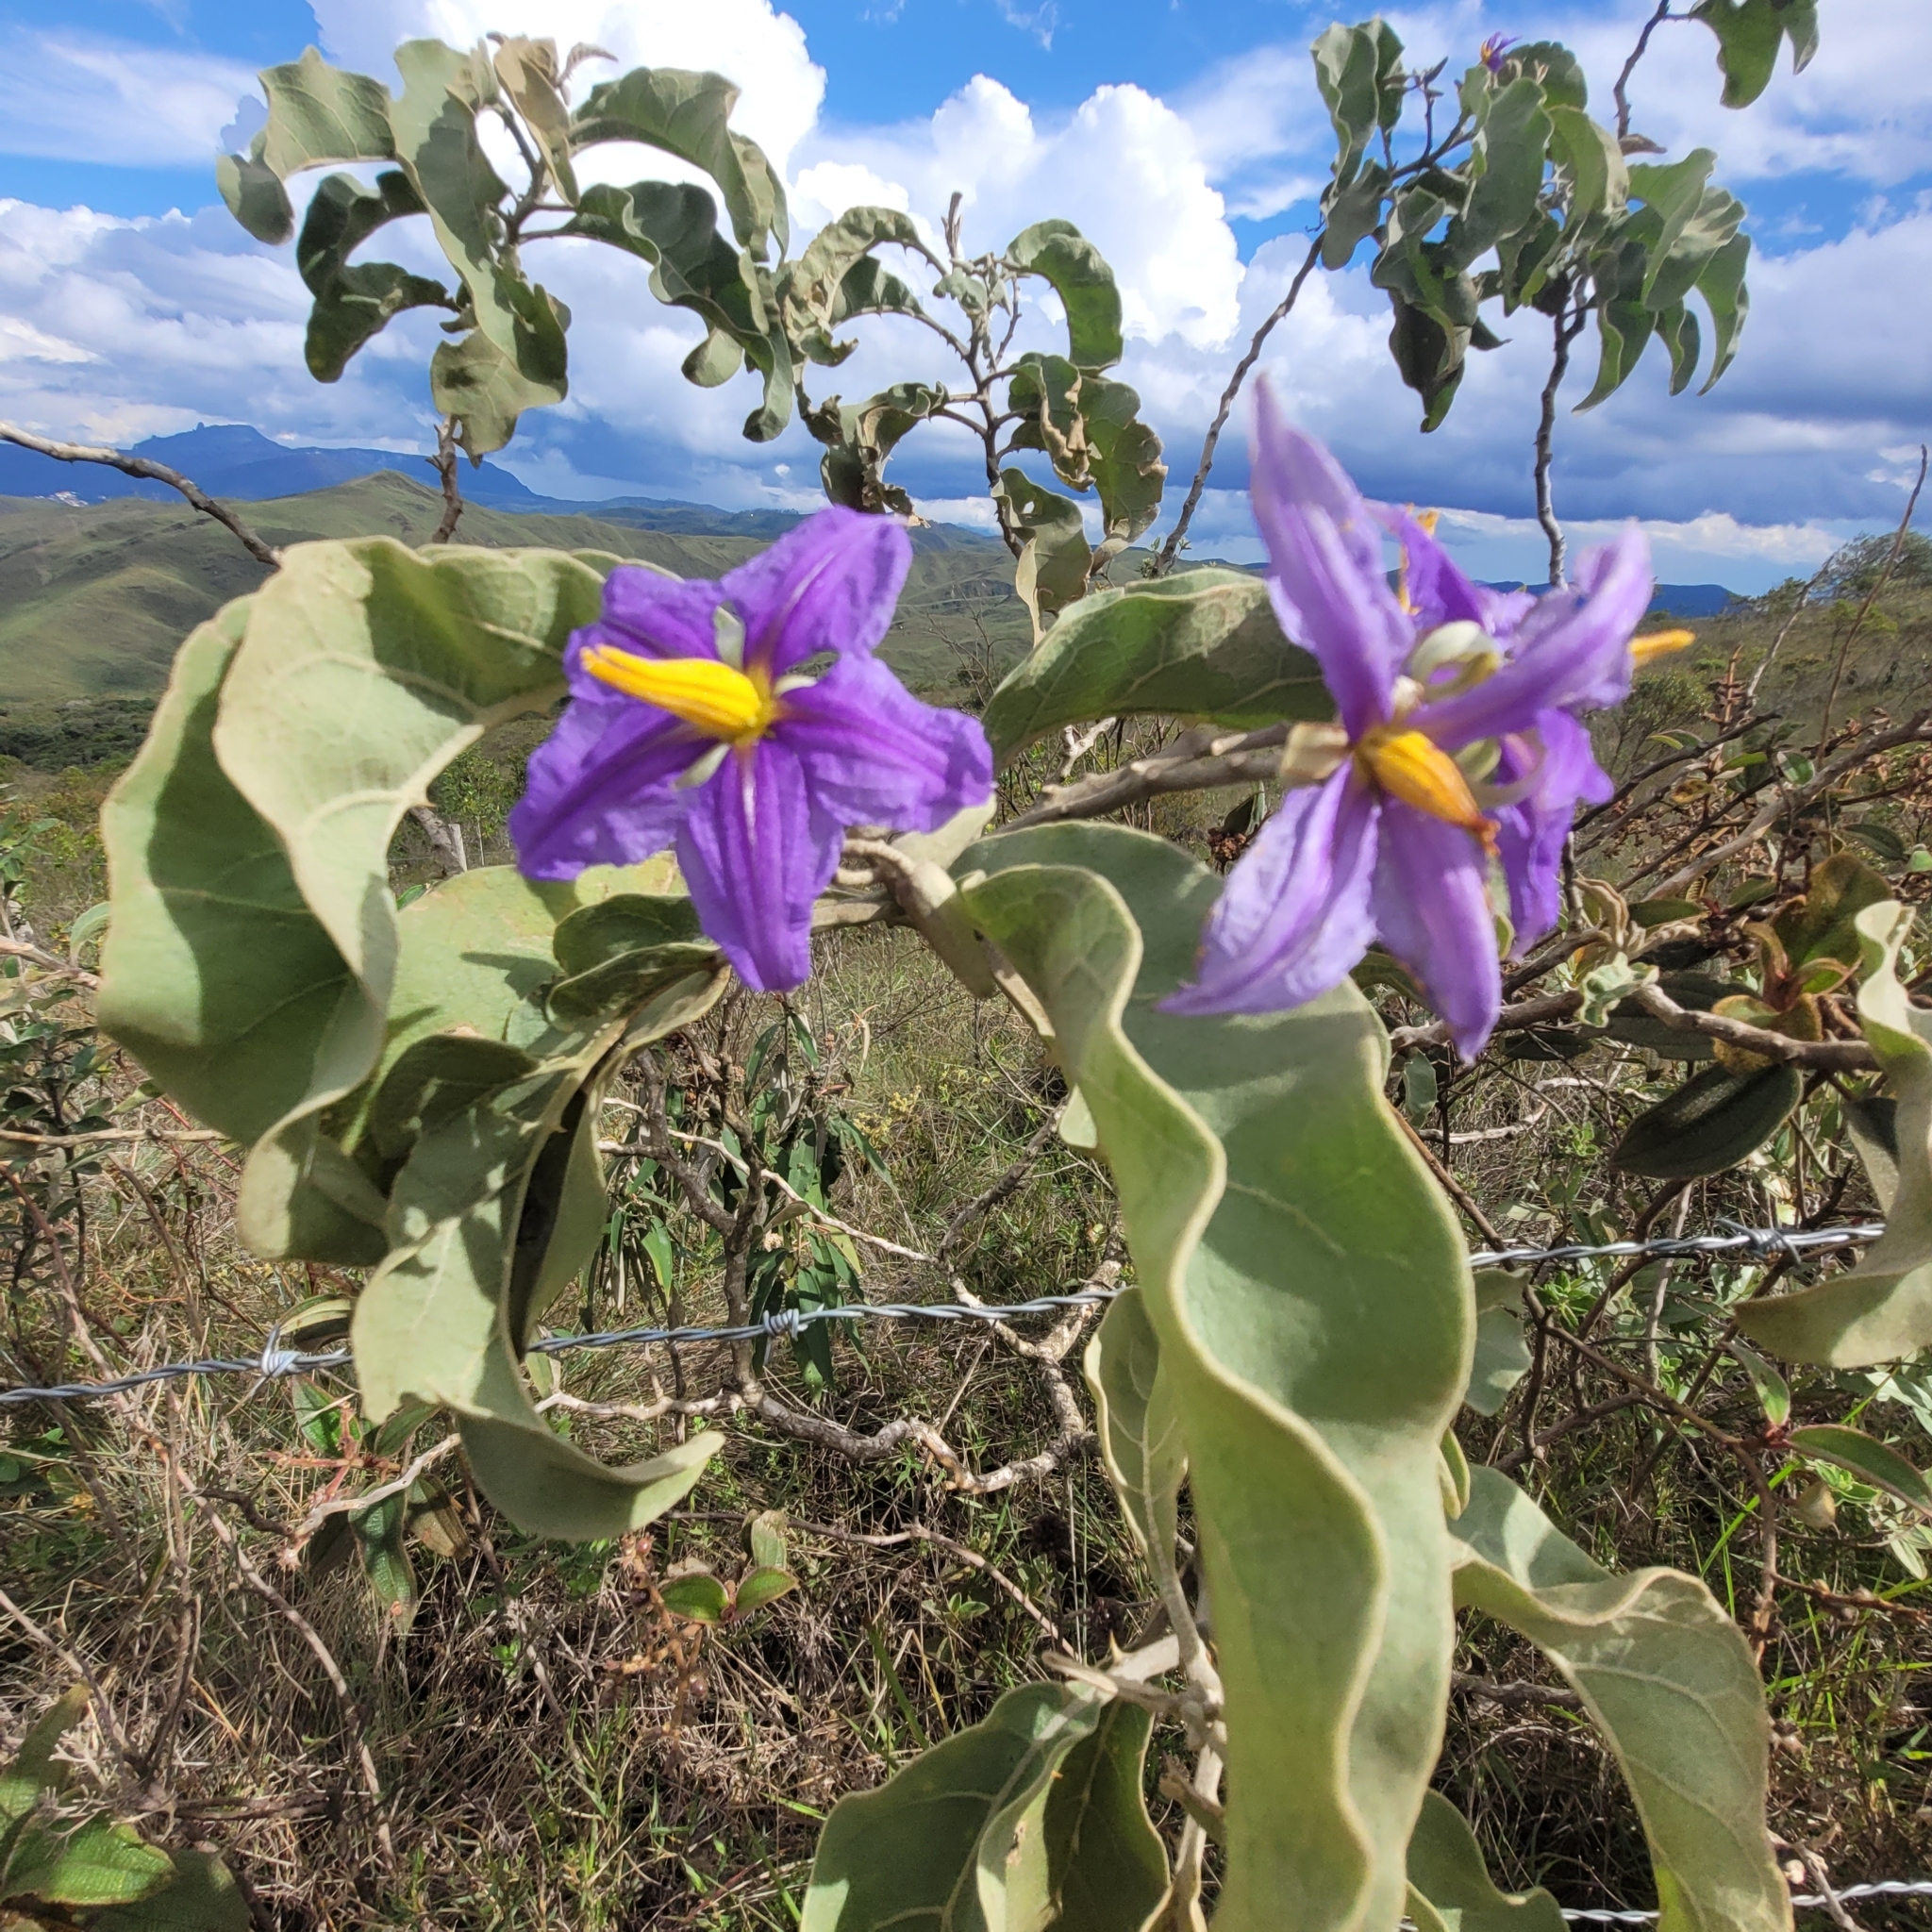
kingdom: Plantae
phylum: Tracheophyta
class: Magnoliopsida
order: Solanales
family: Solanaceae
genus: Solanum
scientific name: Solanum lycocarpum
